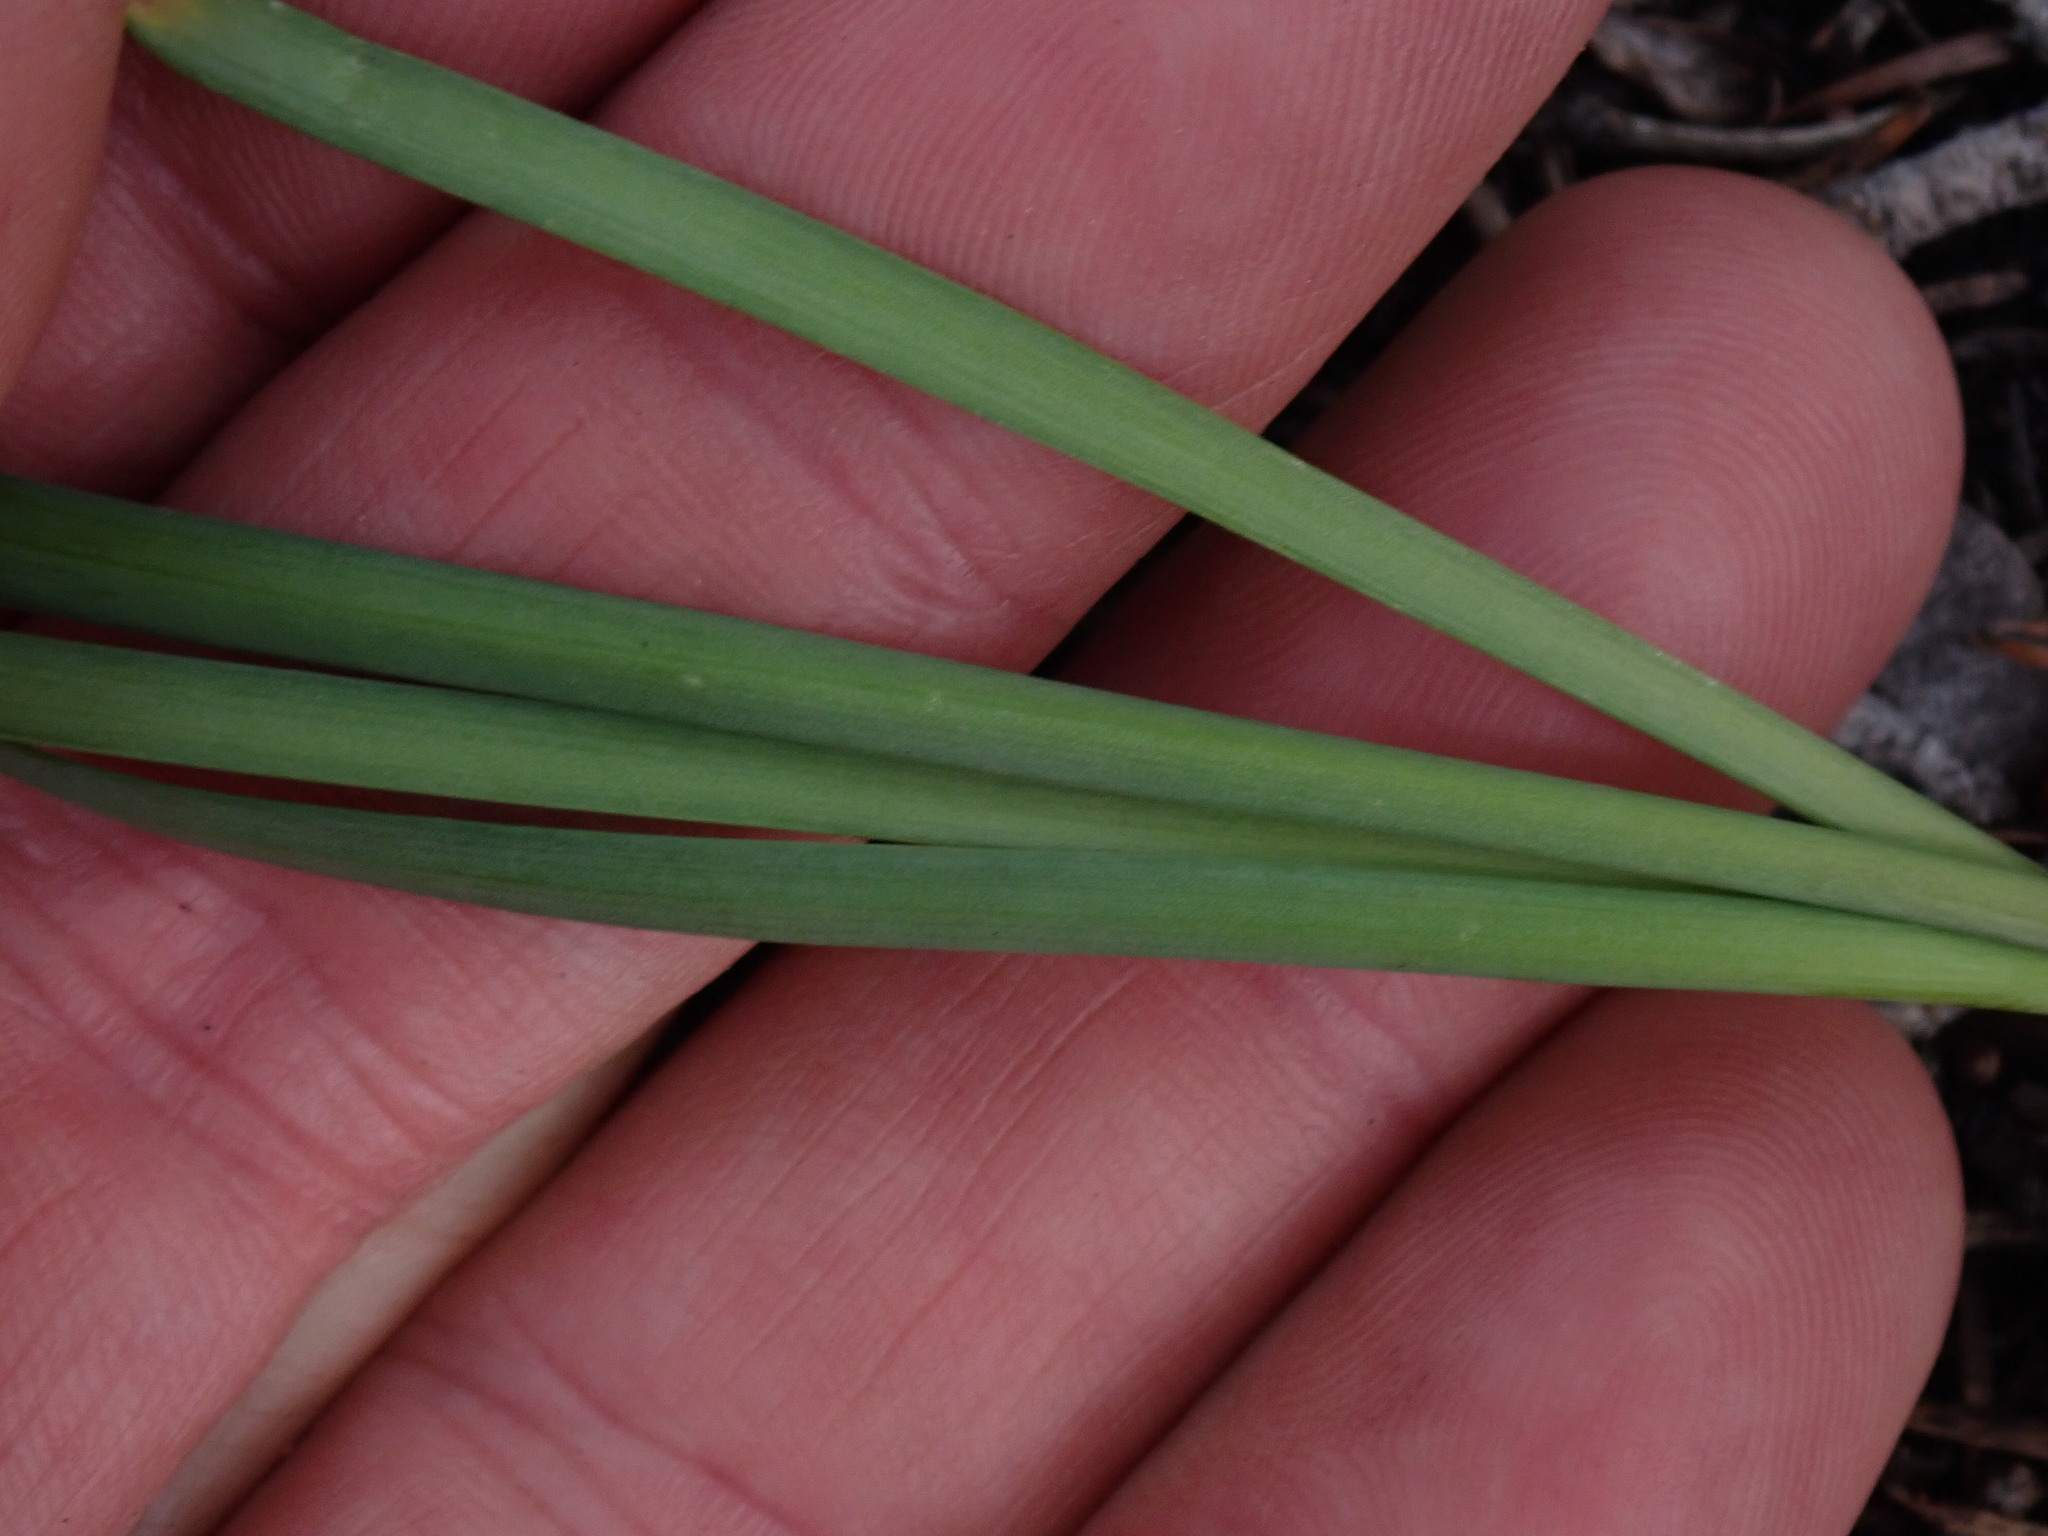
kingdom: Plantae
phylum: Tracheophyta
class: Liliopsida
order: Asparagales
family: Amaryllidaceae
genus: Allium
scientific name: Allium cernuum
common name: Nodding onion
